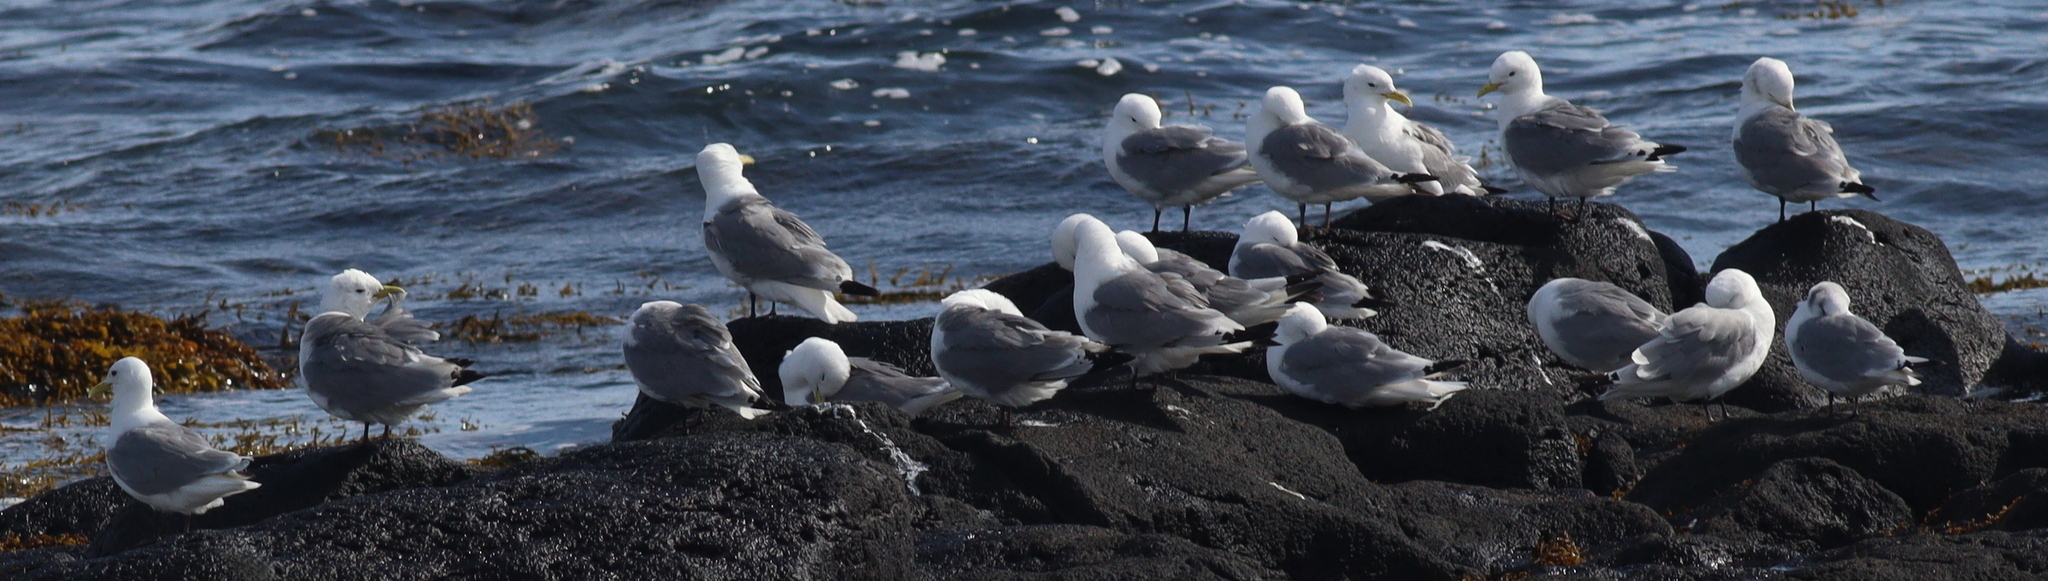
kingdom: Animalia
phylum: Chordata
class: Aves
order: Charadriiformes
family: Laridae
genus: Rissa
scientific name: Rissa tridactyla
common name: Black-legged kittiwake
